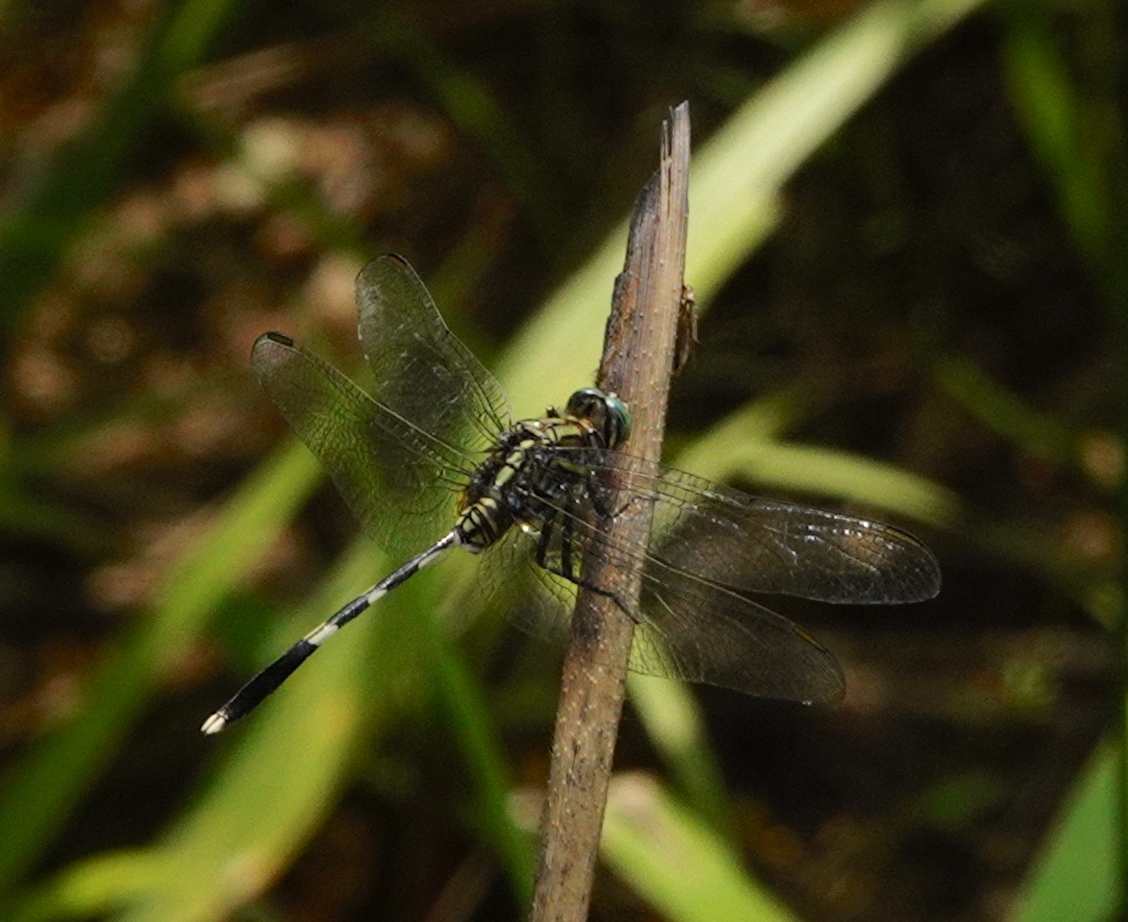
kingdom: Animalia
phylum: Arthropoda
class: Insecta
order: Odonata
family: Libellulidae
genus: Orthetrum
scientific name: Orthetrum sabina
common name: Slender skimmer
